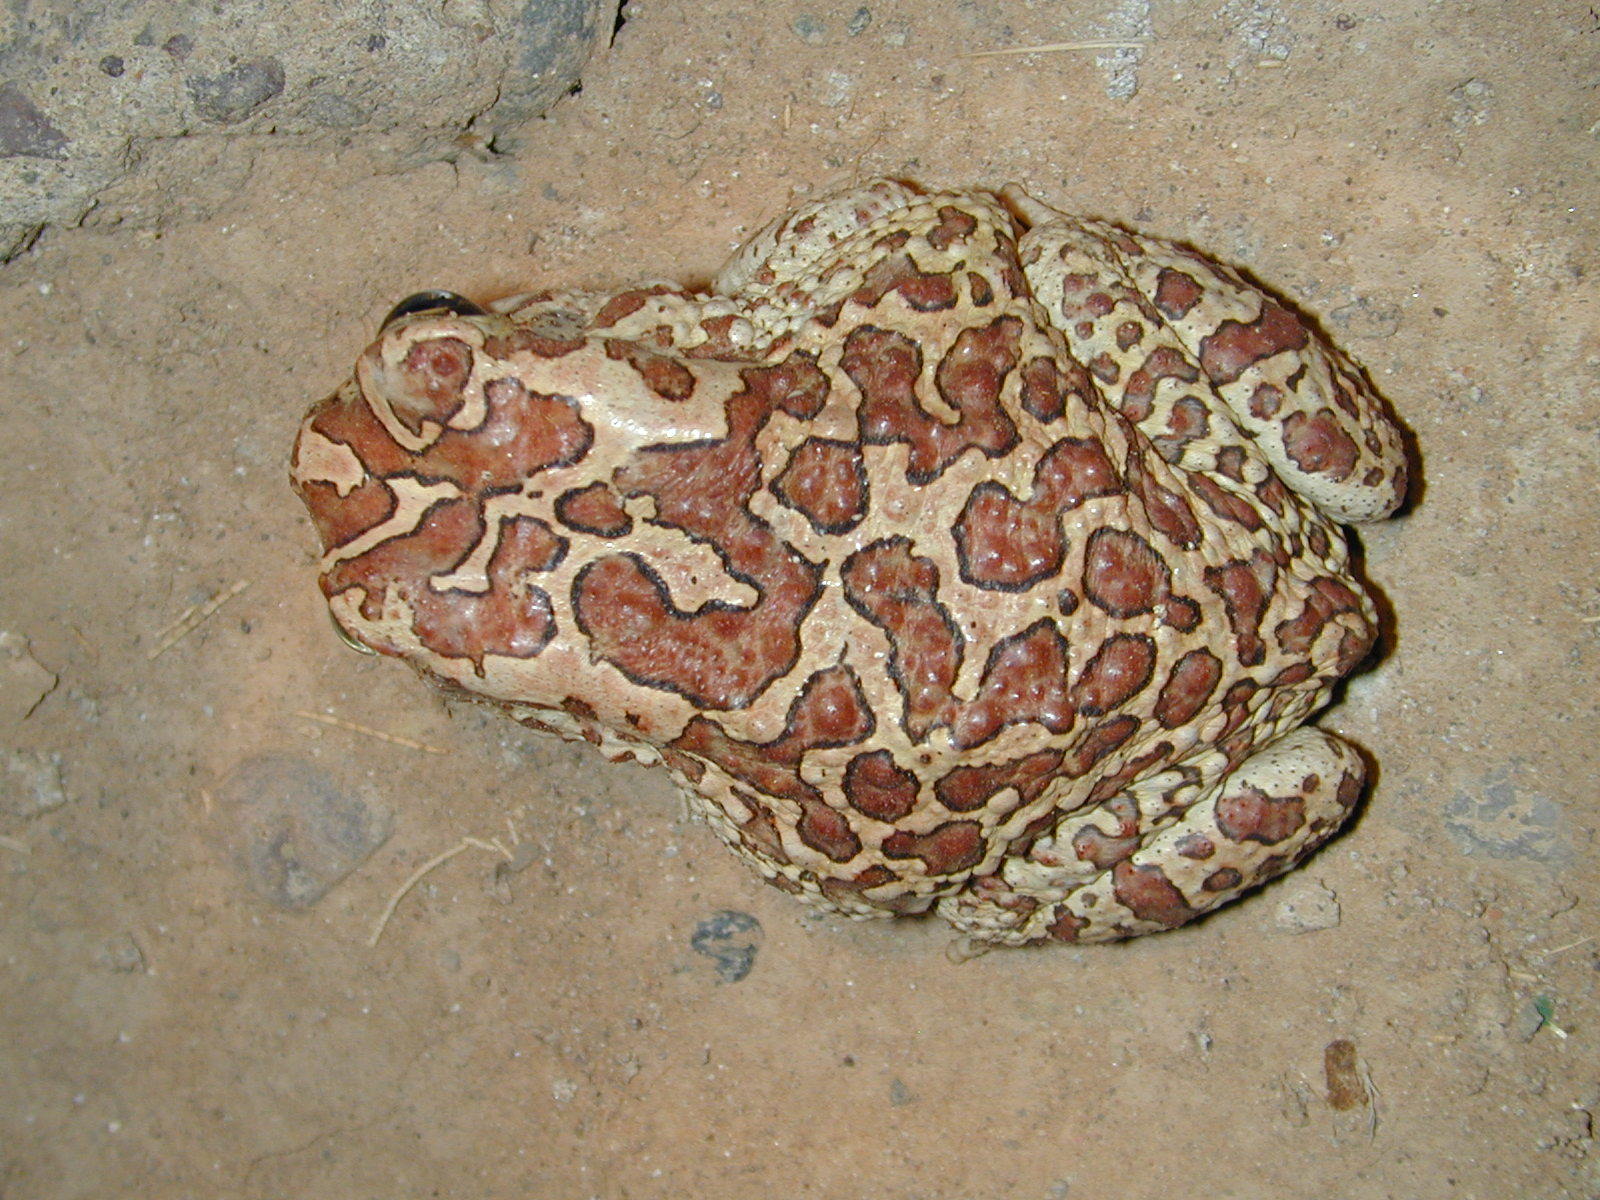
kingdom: Animalia
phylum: Chordata
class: Amphibia
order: Anura
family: Bufonidae
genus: Sclerophrys
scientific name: Sclerophrys mauritanica
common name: Berber toad
